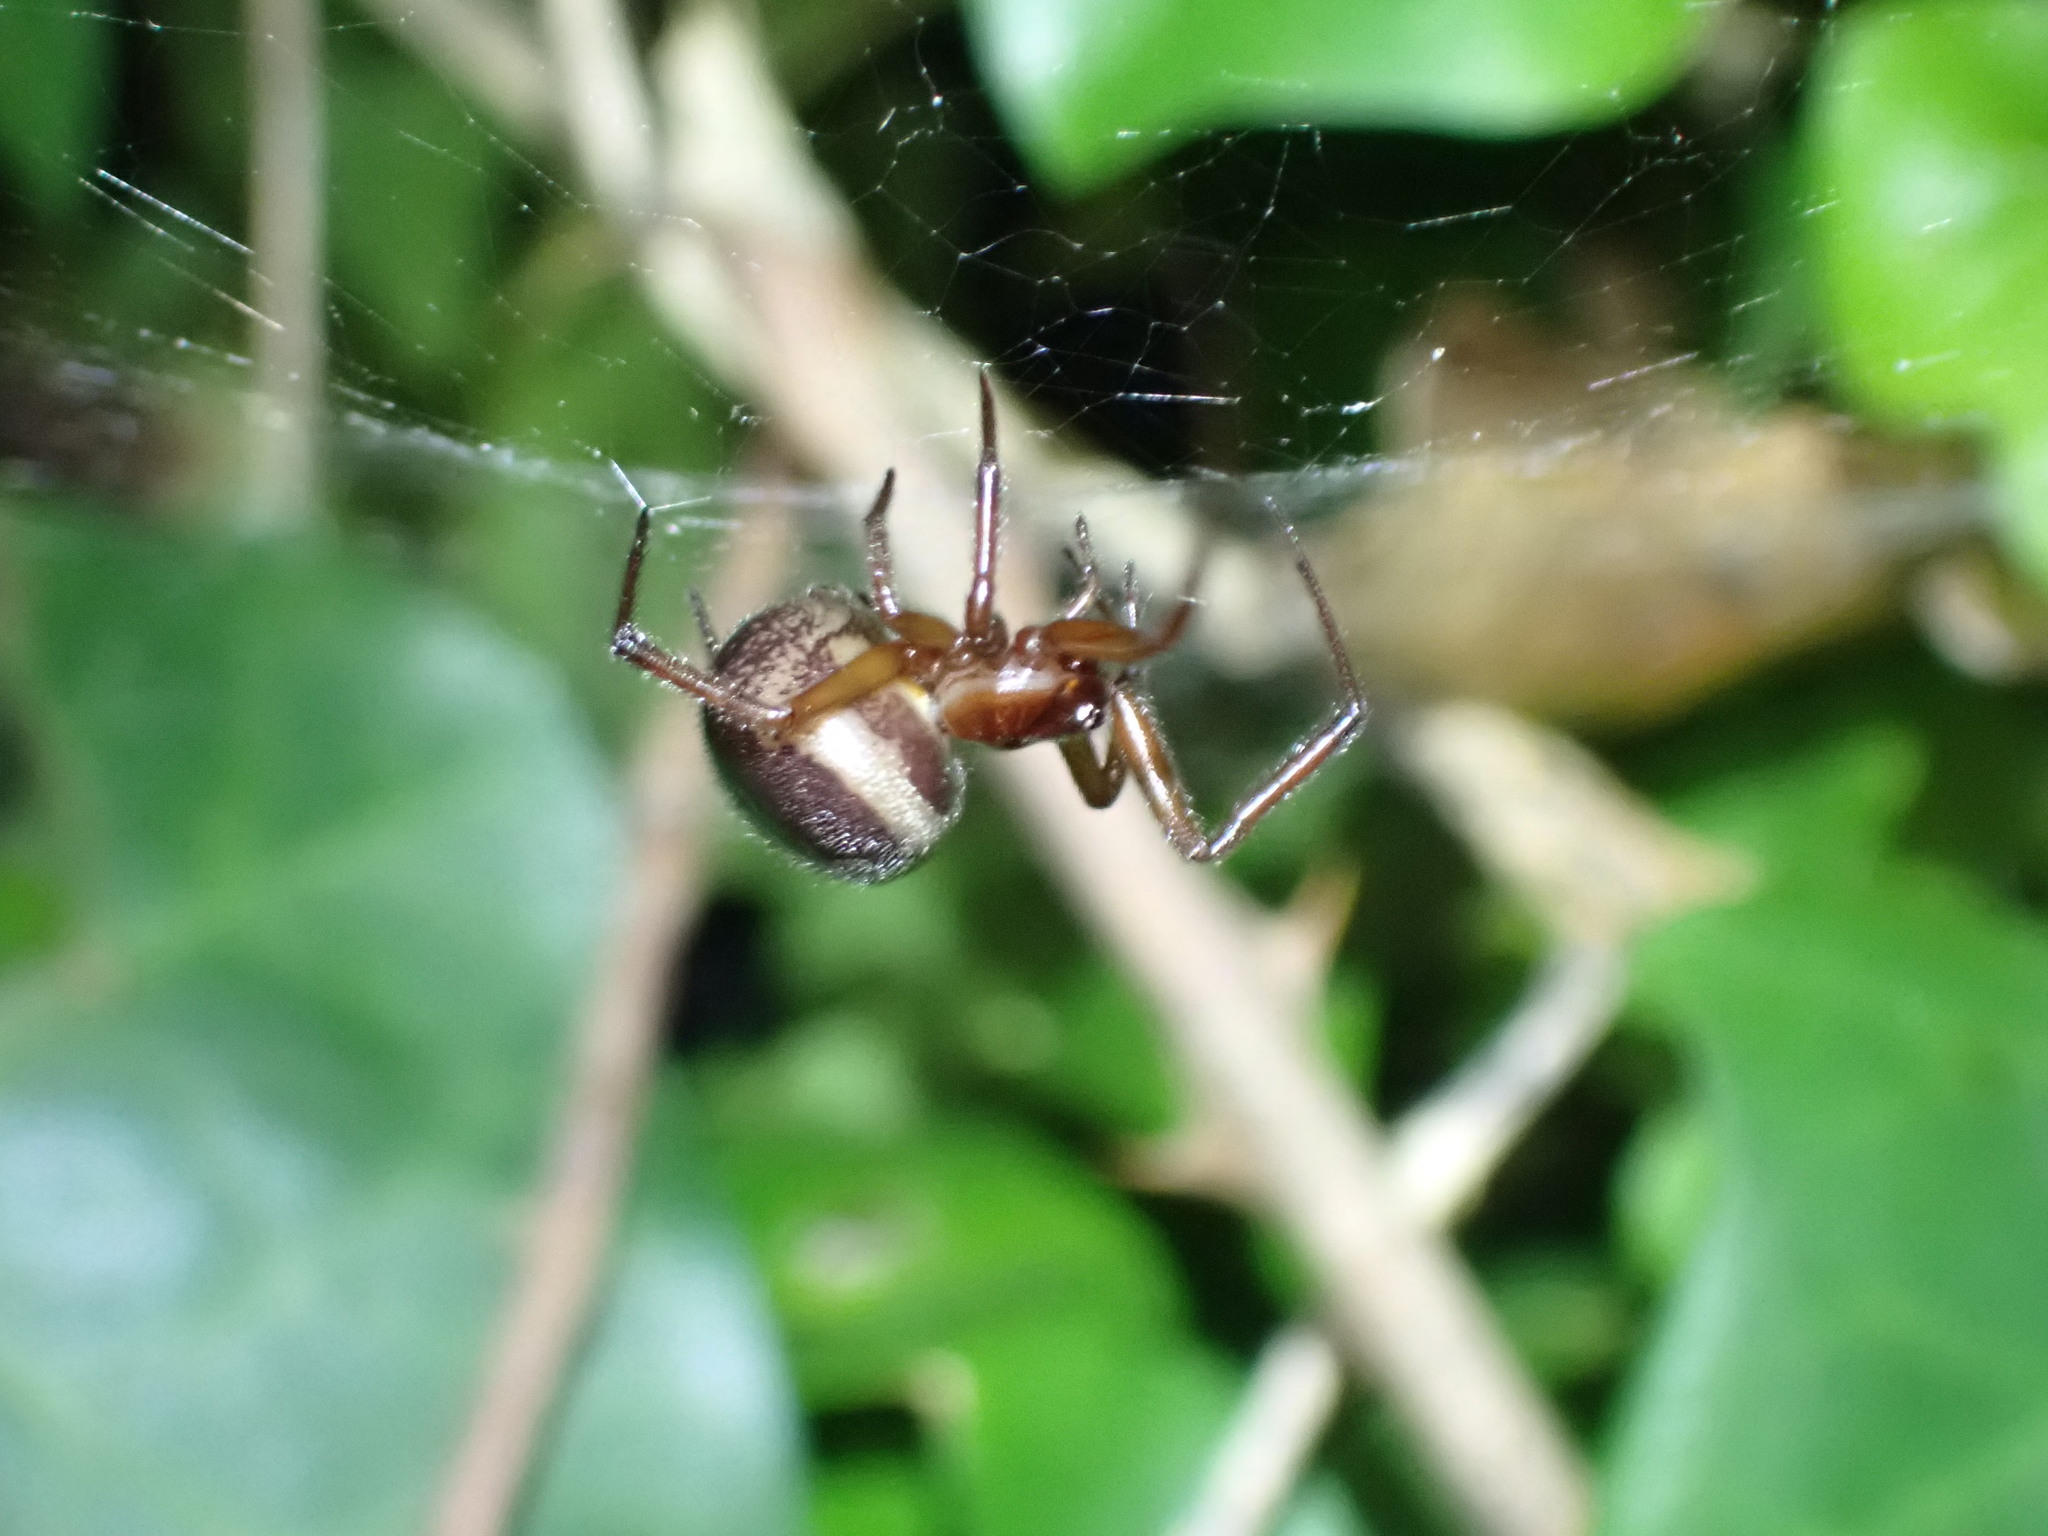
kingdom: Animalia
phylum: Arthropoda
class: Arachnida
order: Araneae
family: Theridiidae
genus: Steatoda
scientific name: Steatoda nobilis
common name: Cobweb weaver
